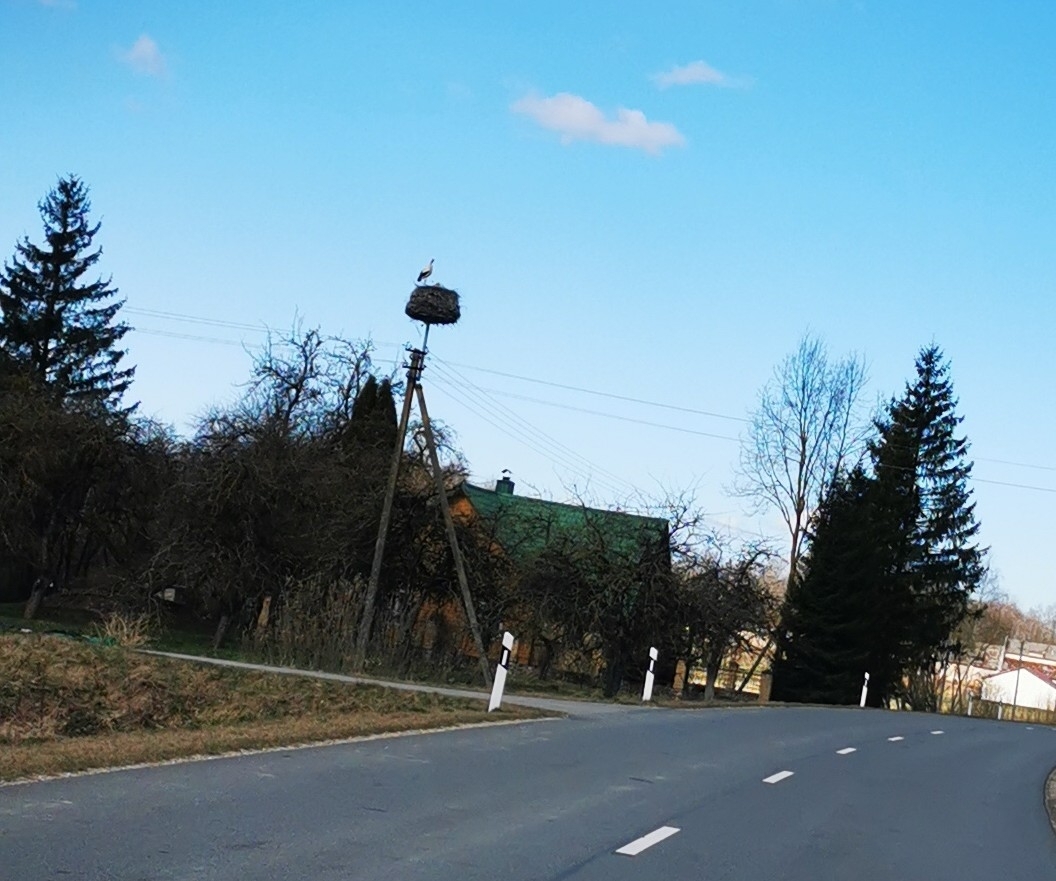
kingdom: Animalia
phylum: Chordata
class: Aves
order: Ciconiiformes
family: Ciconiidae
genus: Ciconia
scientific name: Ciconia ciconia
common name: White stork
